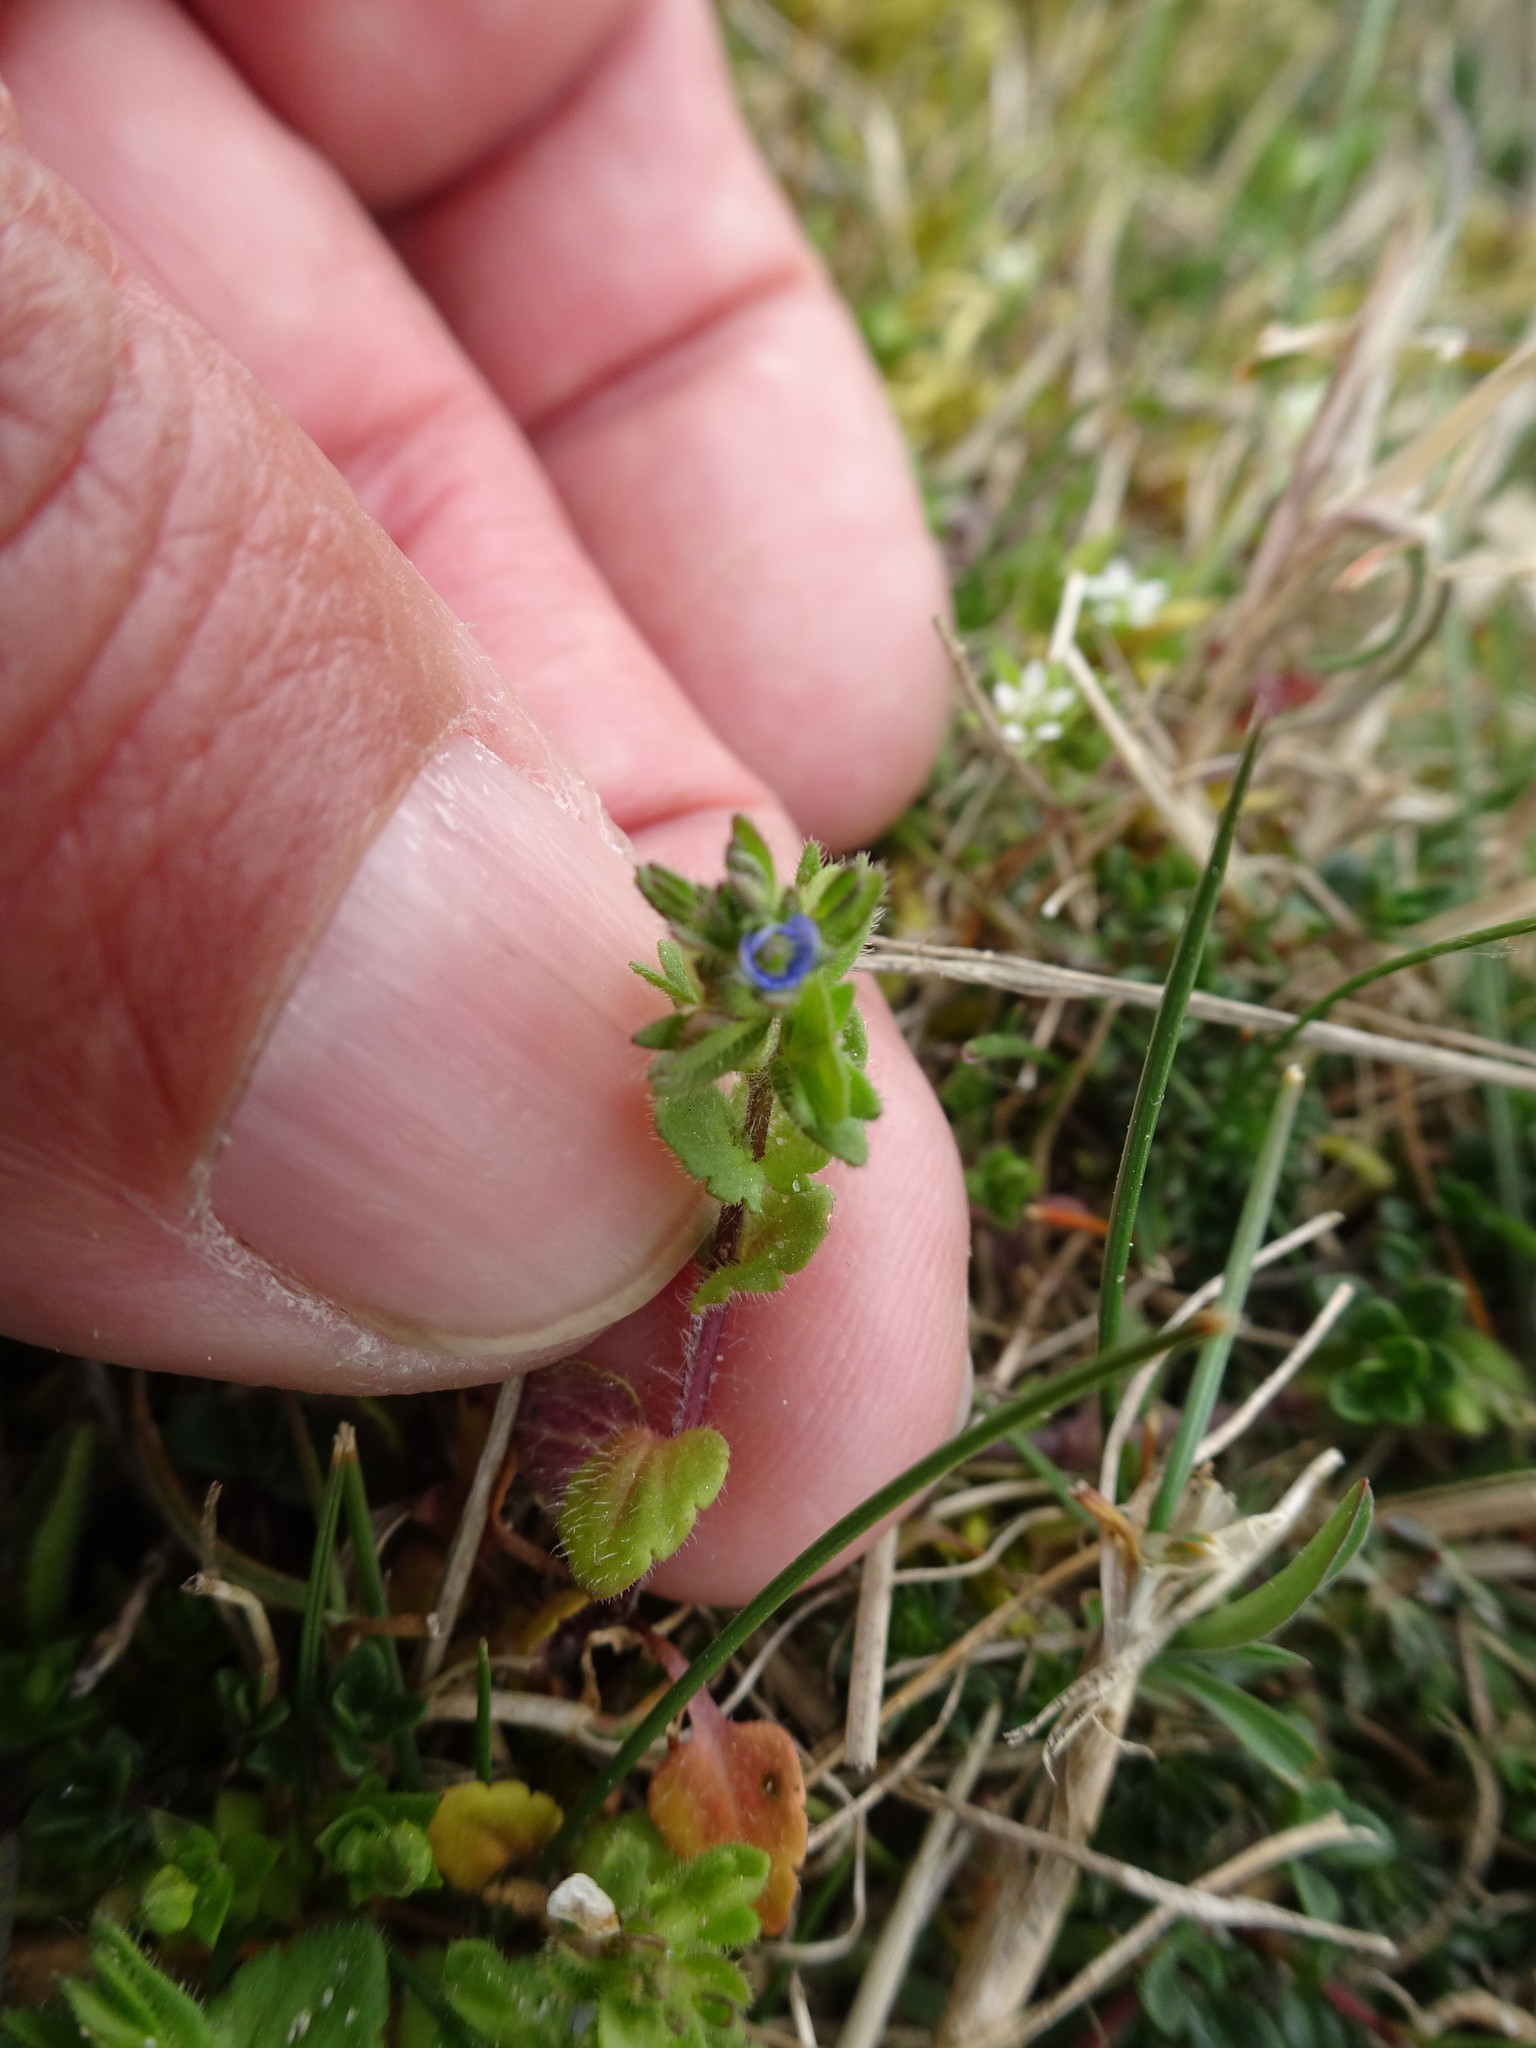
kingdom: Plantae
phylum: Tracheophyta
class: Magnoliopsida
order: Lamiales
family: Plantaginaceae
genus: Veronica
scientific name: Veronica arvensis
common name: Corn speedwell
